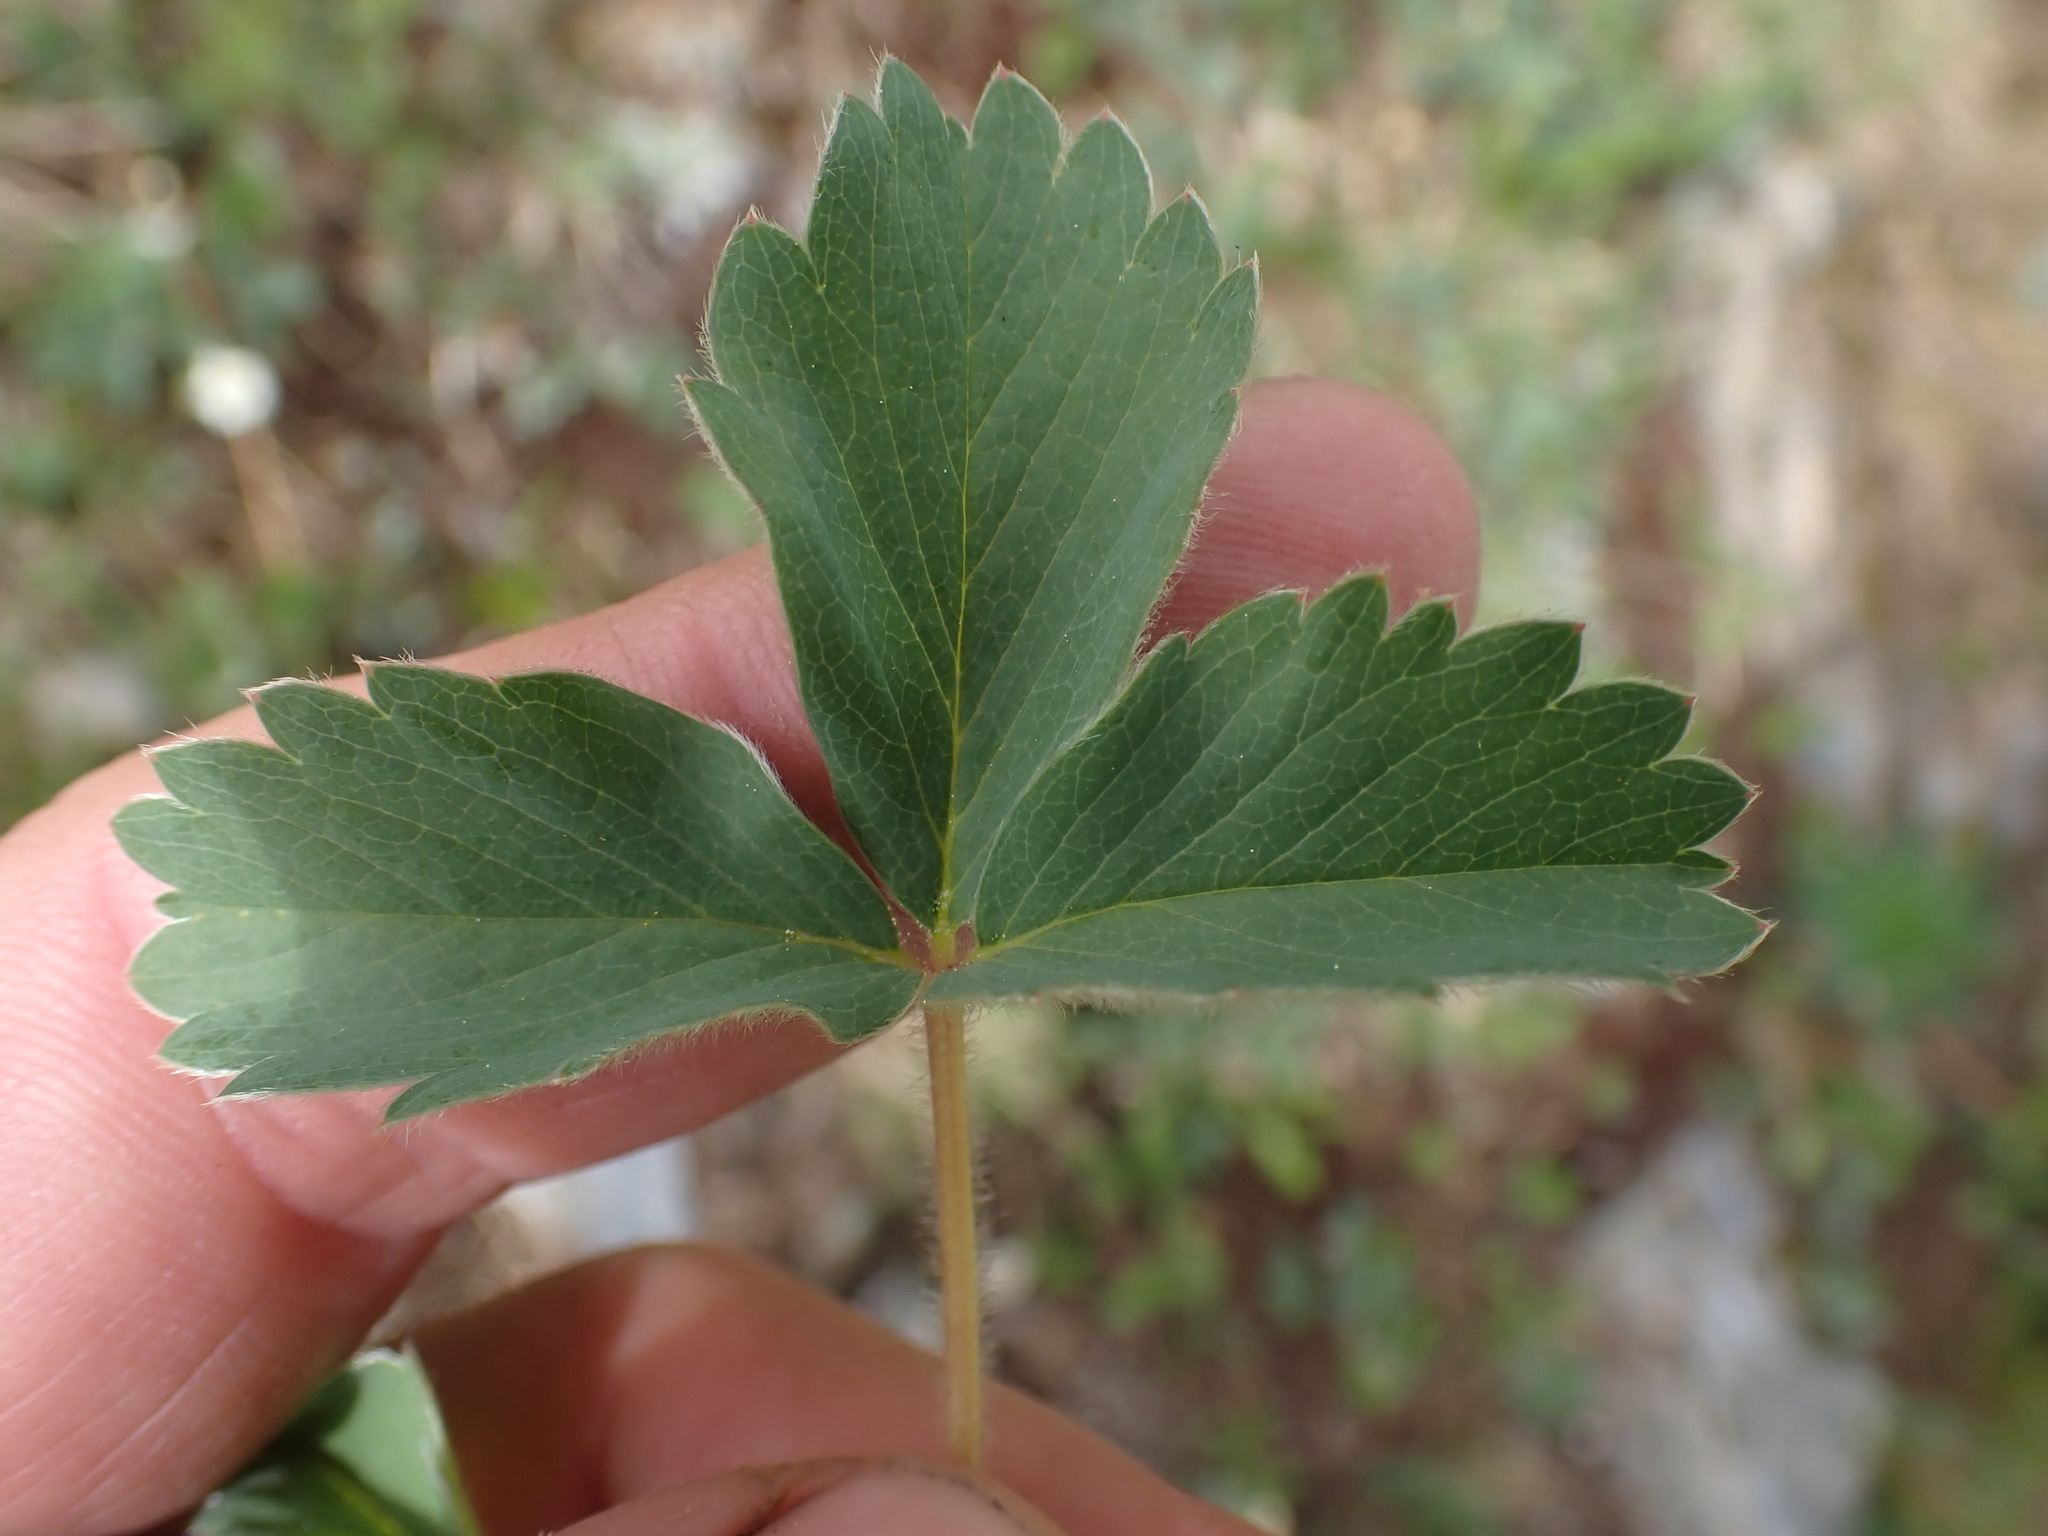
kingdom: Plantae
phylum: Tracheophyta
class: Magnoliopsida
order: Rosales
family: Rosaceae
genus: Fragaria
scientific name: Fragaria virginiana
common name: Thickleaved wild strawberry
